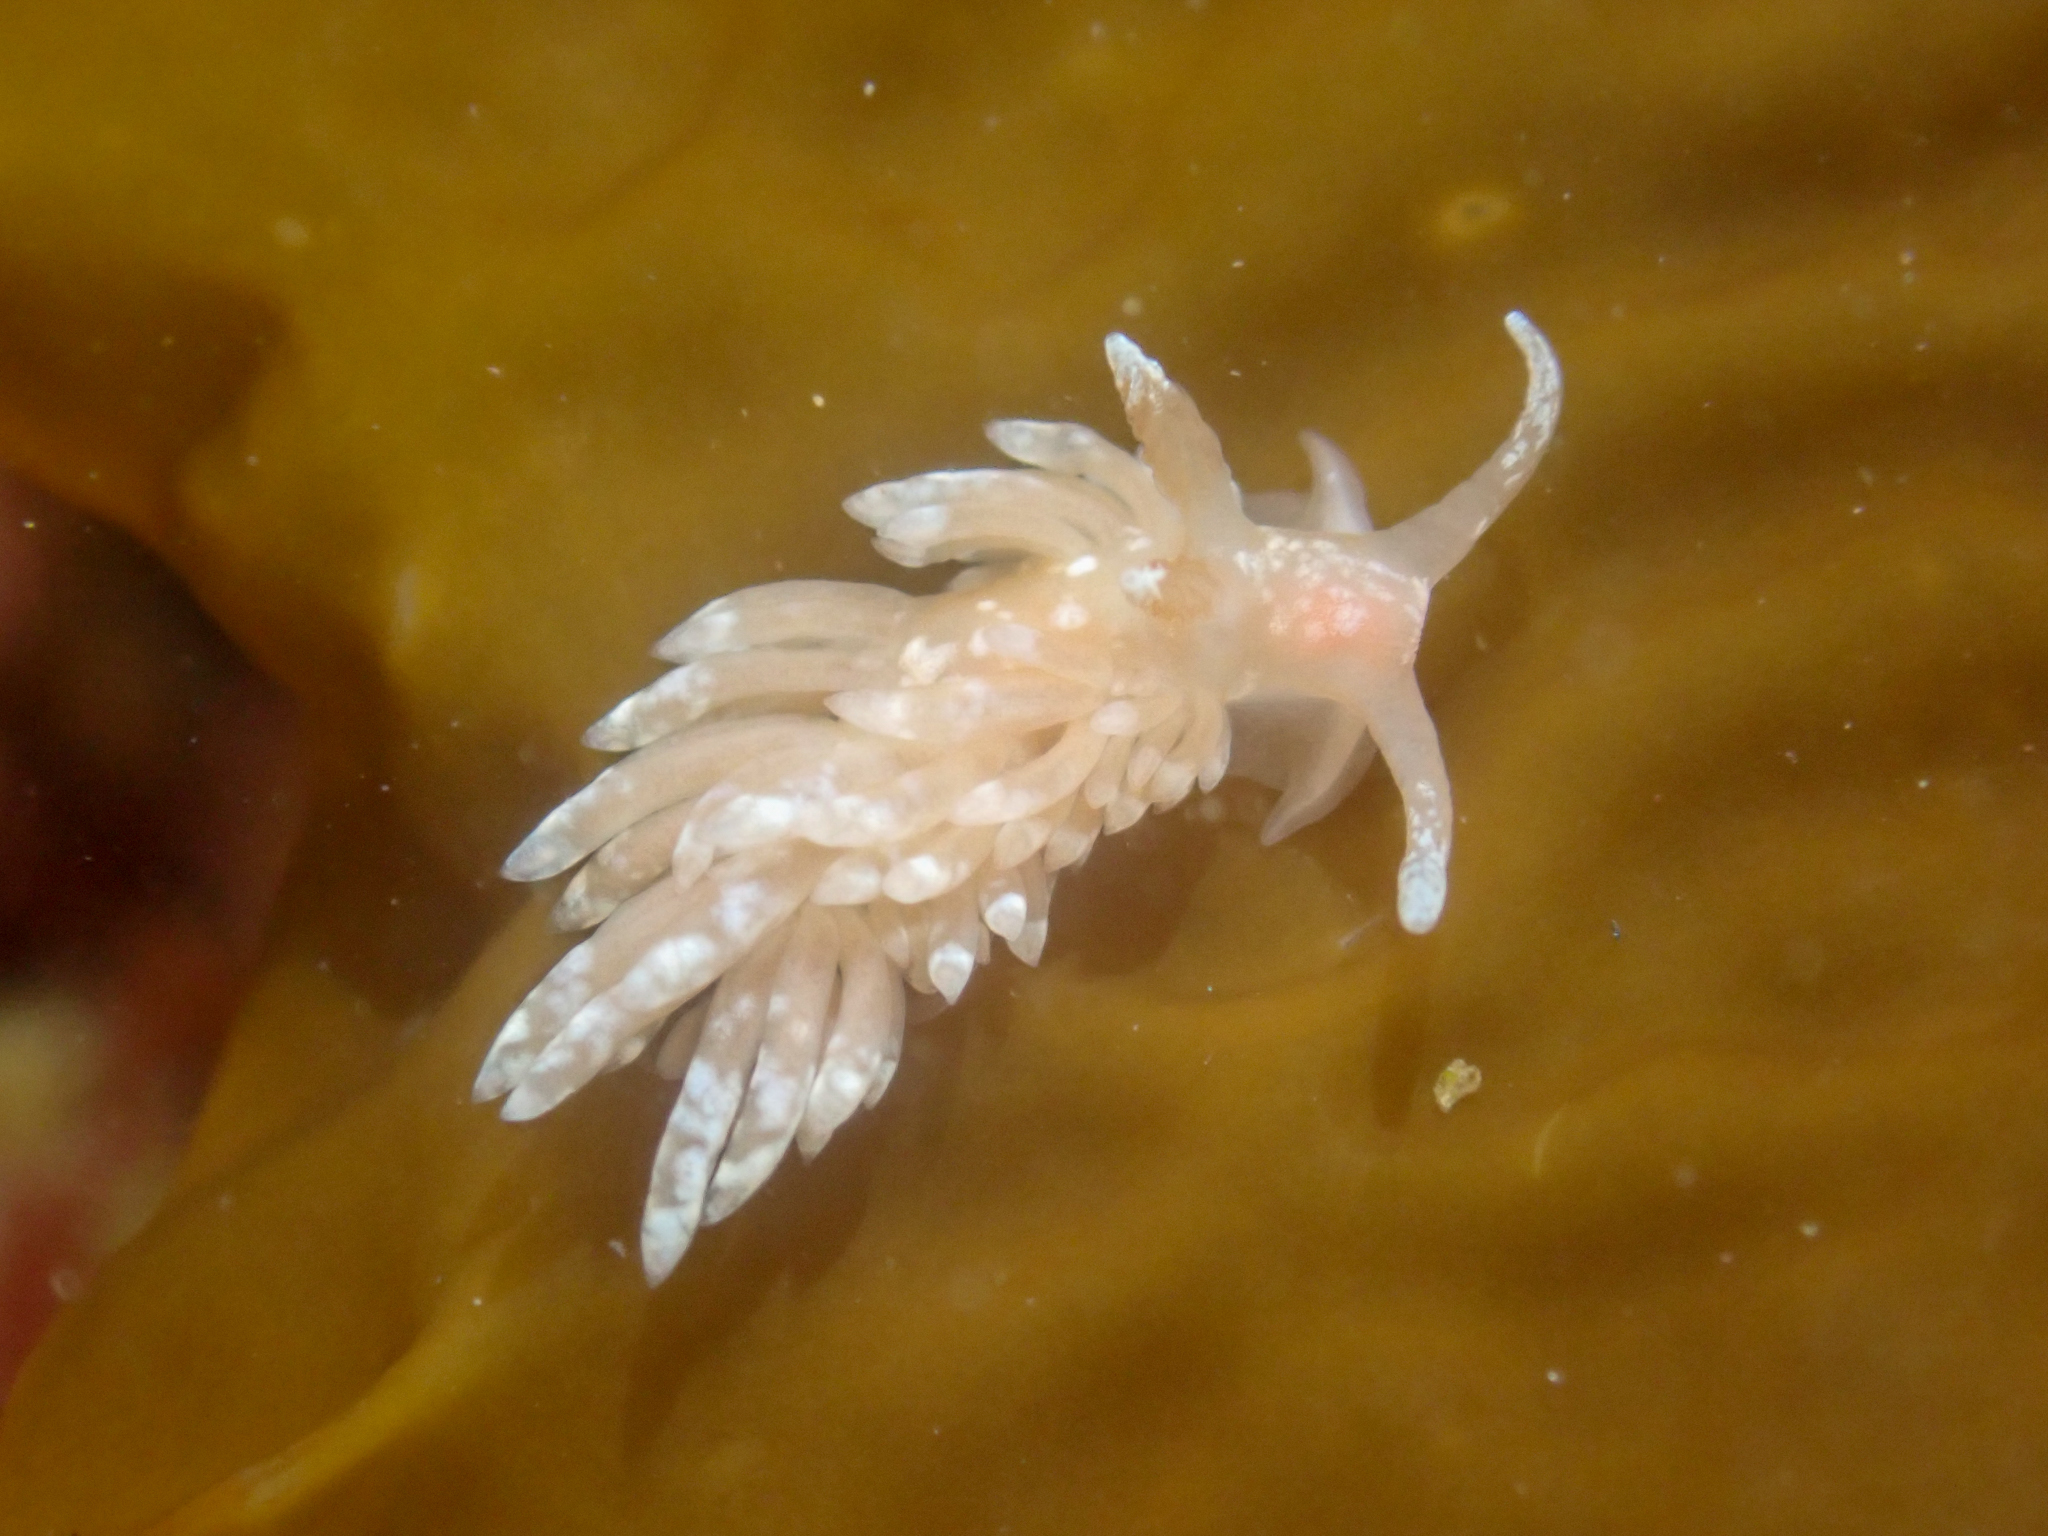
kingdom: Animalia
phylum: Mollusca
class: Gastropoda
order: Nudibranchia
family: Aeolidiidae
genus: Anteaeolidiella
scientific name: Anteaeolidiella chromosoma
